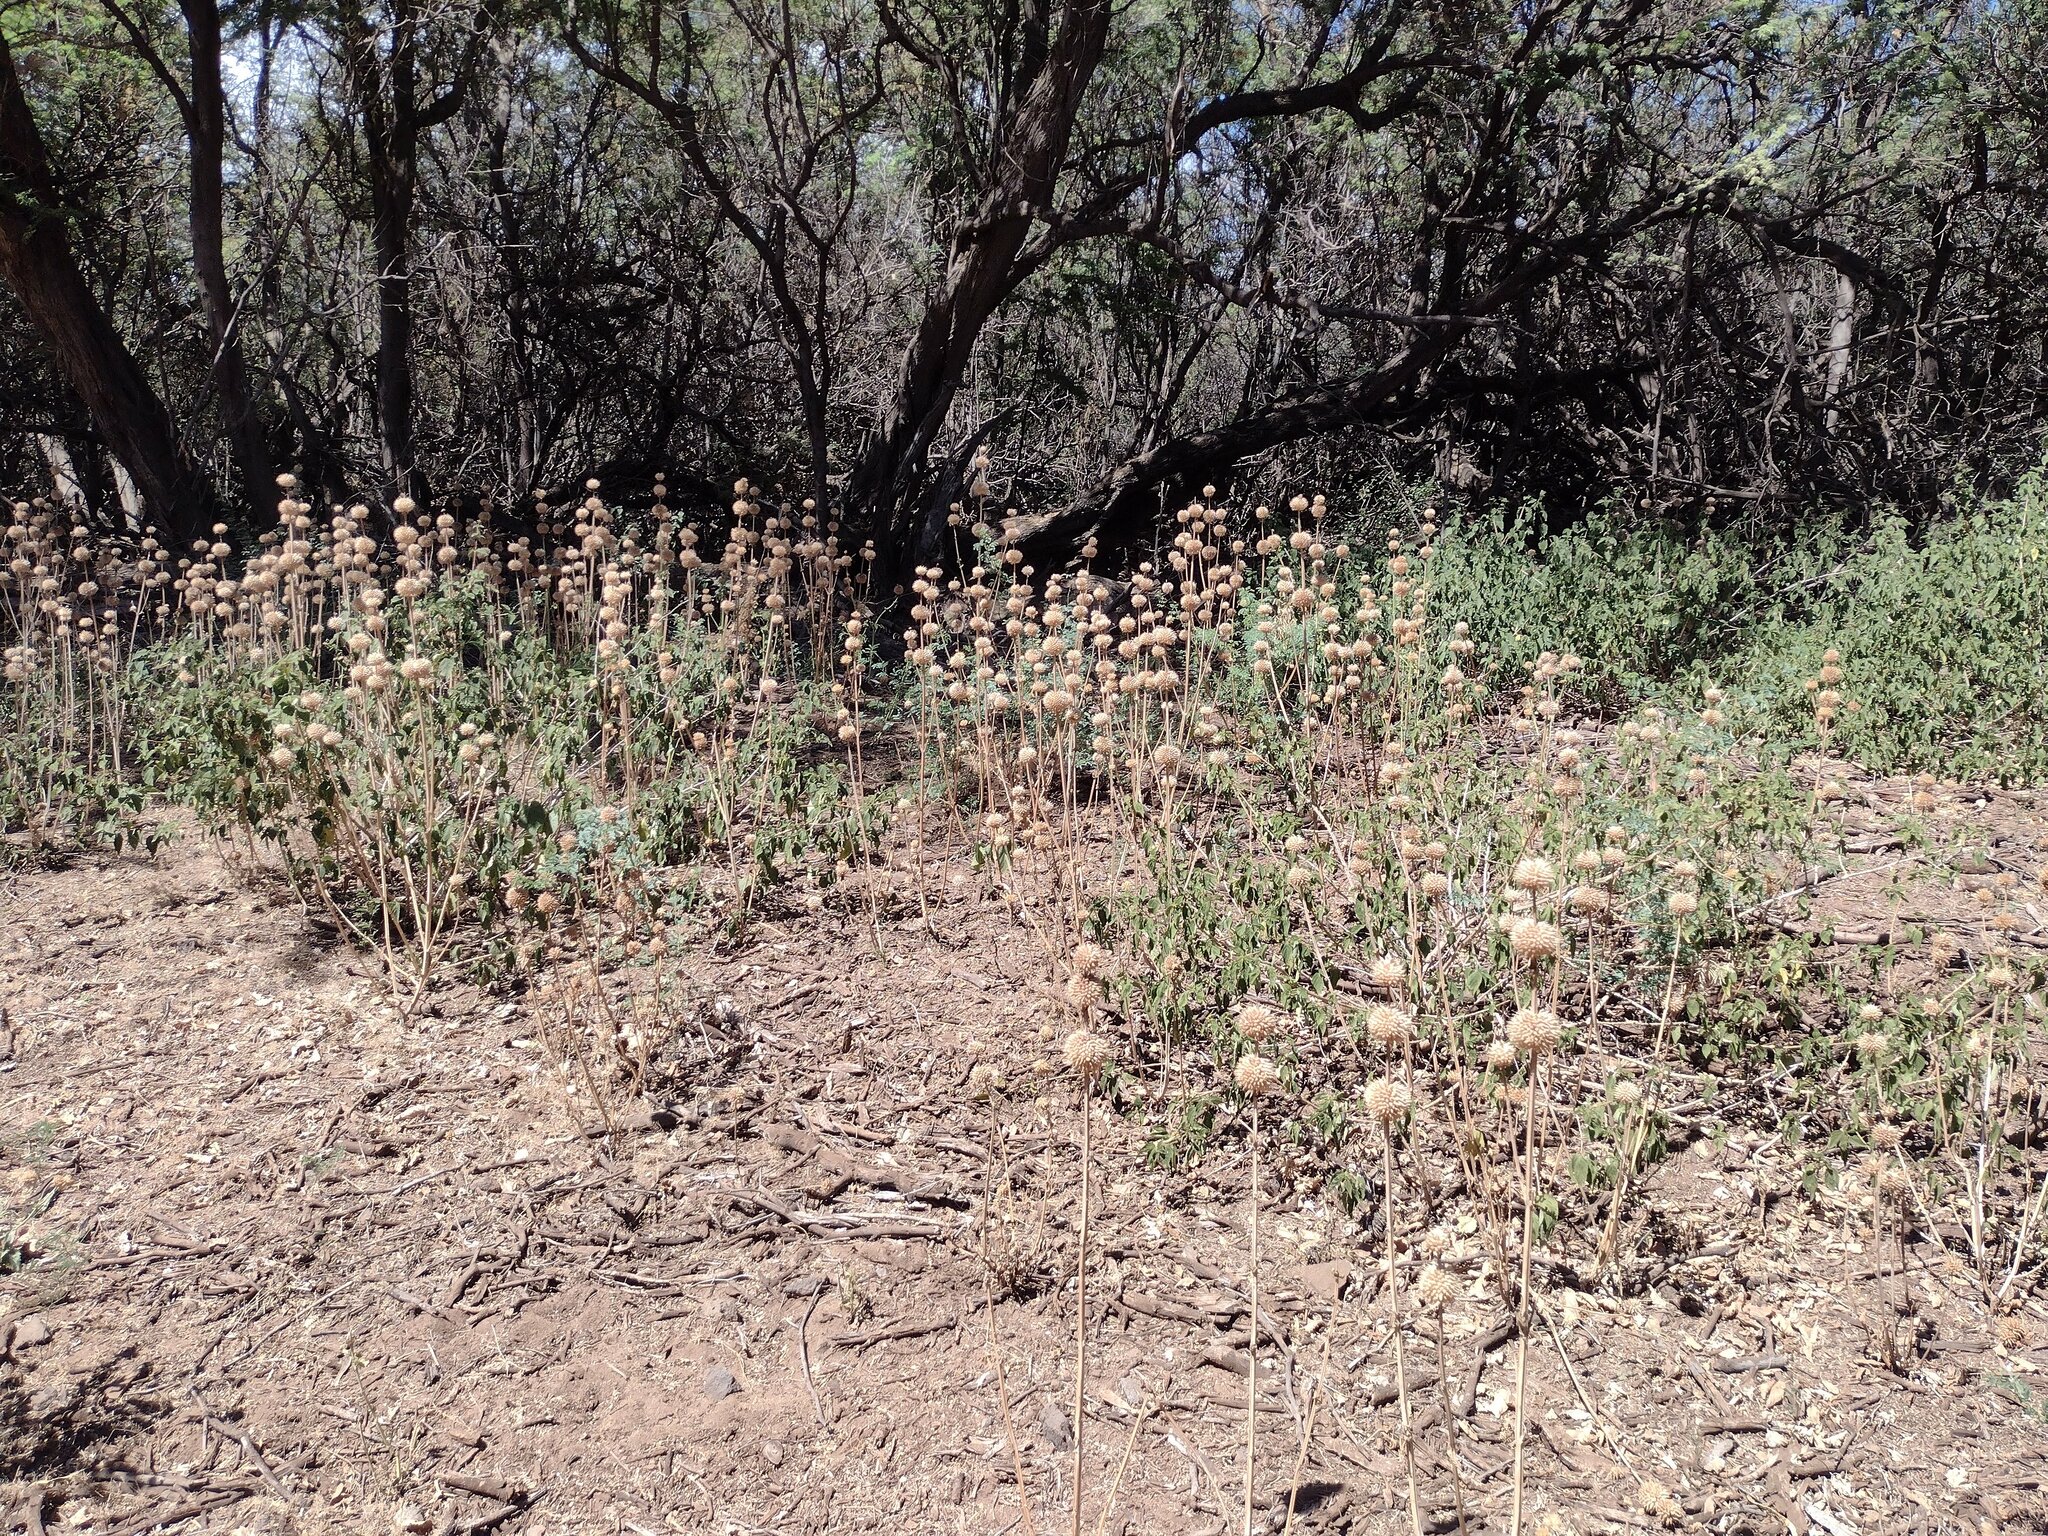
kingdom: Plantae
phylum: Tracheophyta
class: Magnoliopsida
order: Lamiales
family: Lamiaceae
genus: Leonotis
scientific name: Leonotis nepetifolia
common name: Christmas candlestick
